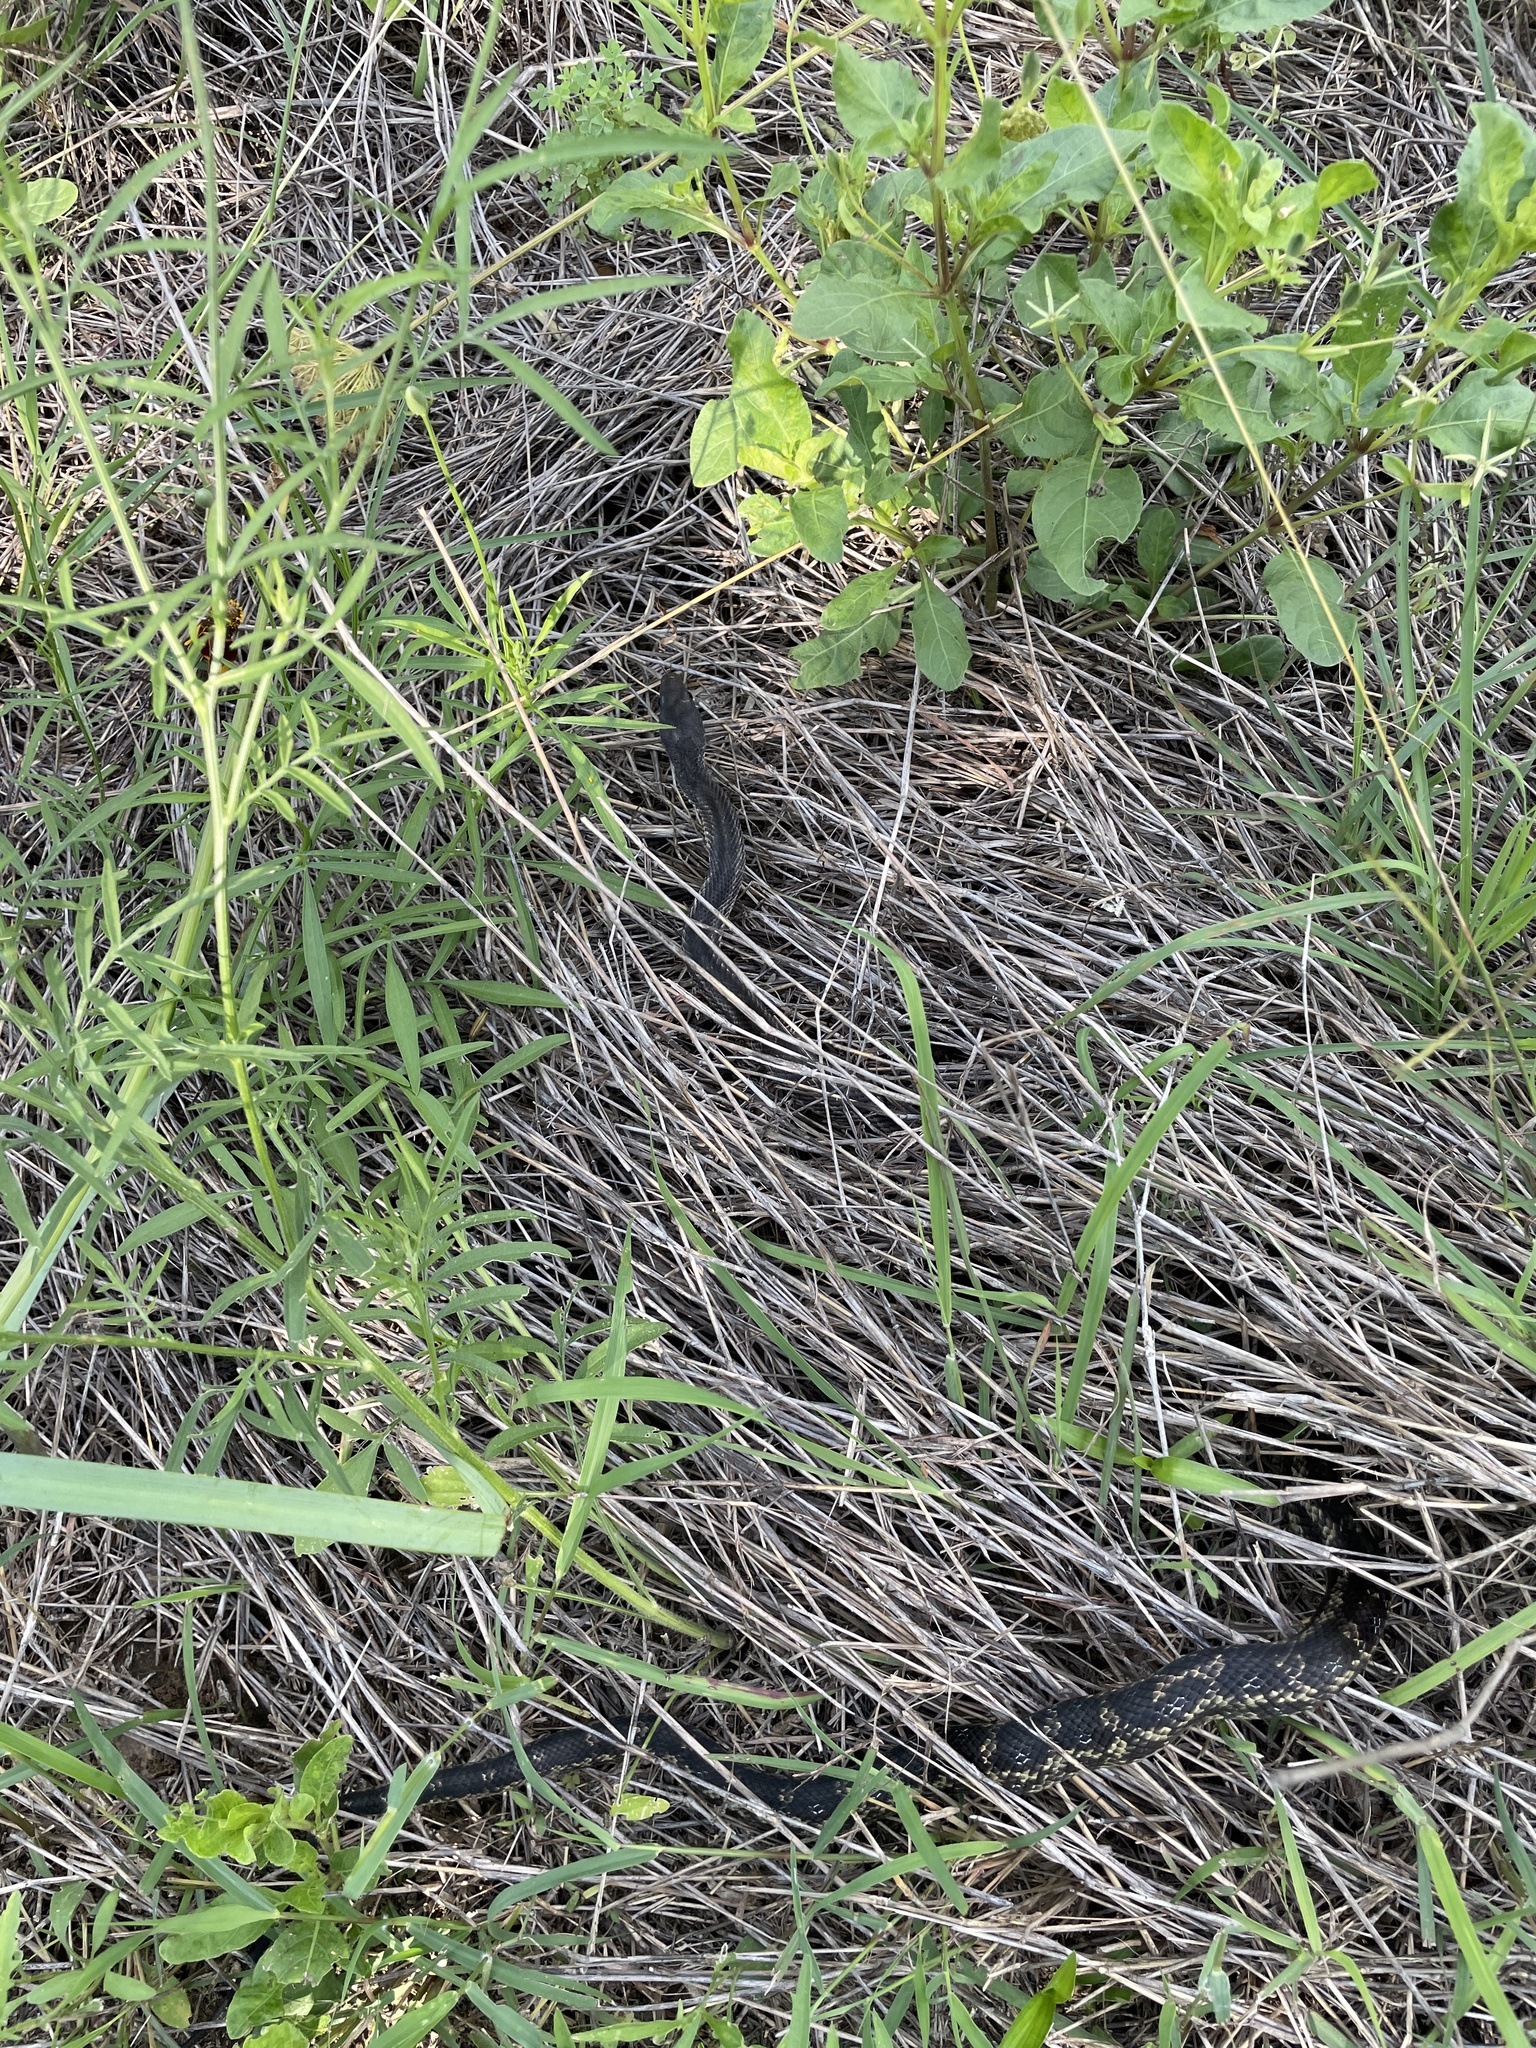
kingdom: Animalia
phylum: Chordata
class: Squamata
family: Colubridae
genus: Pantherophis
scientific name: Pantherophis obsoletus
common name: Black rat snake
